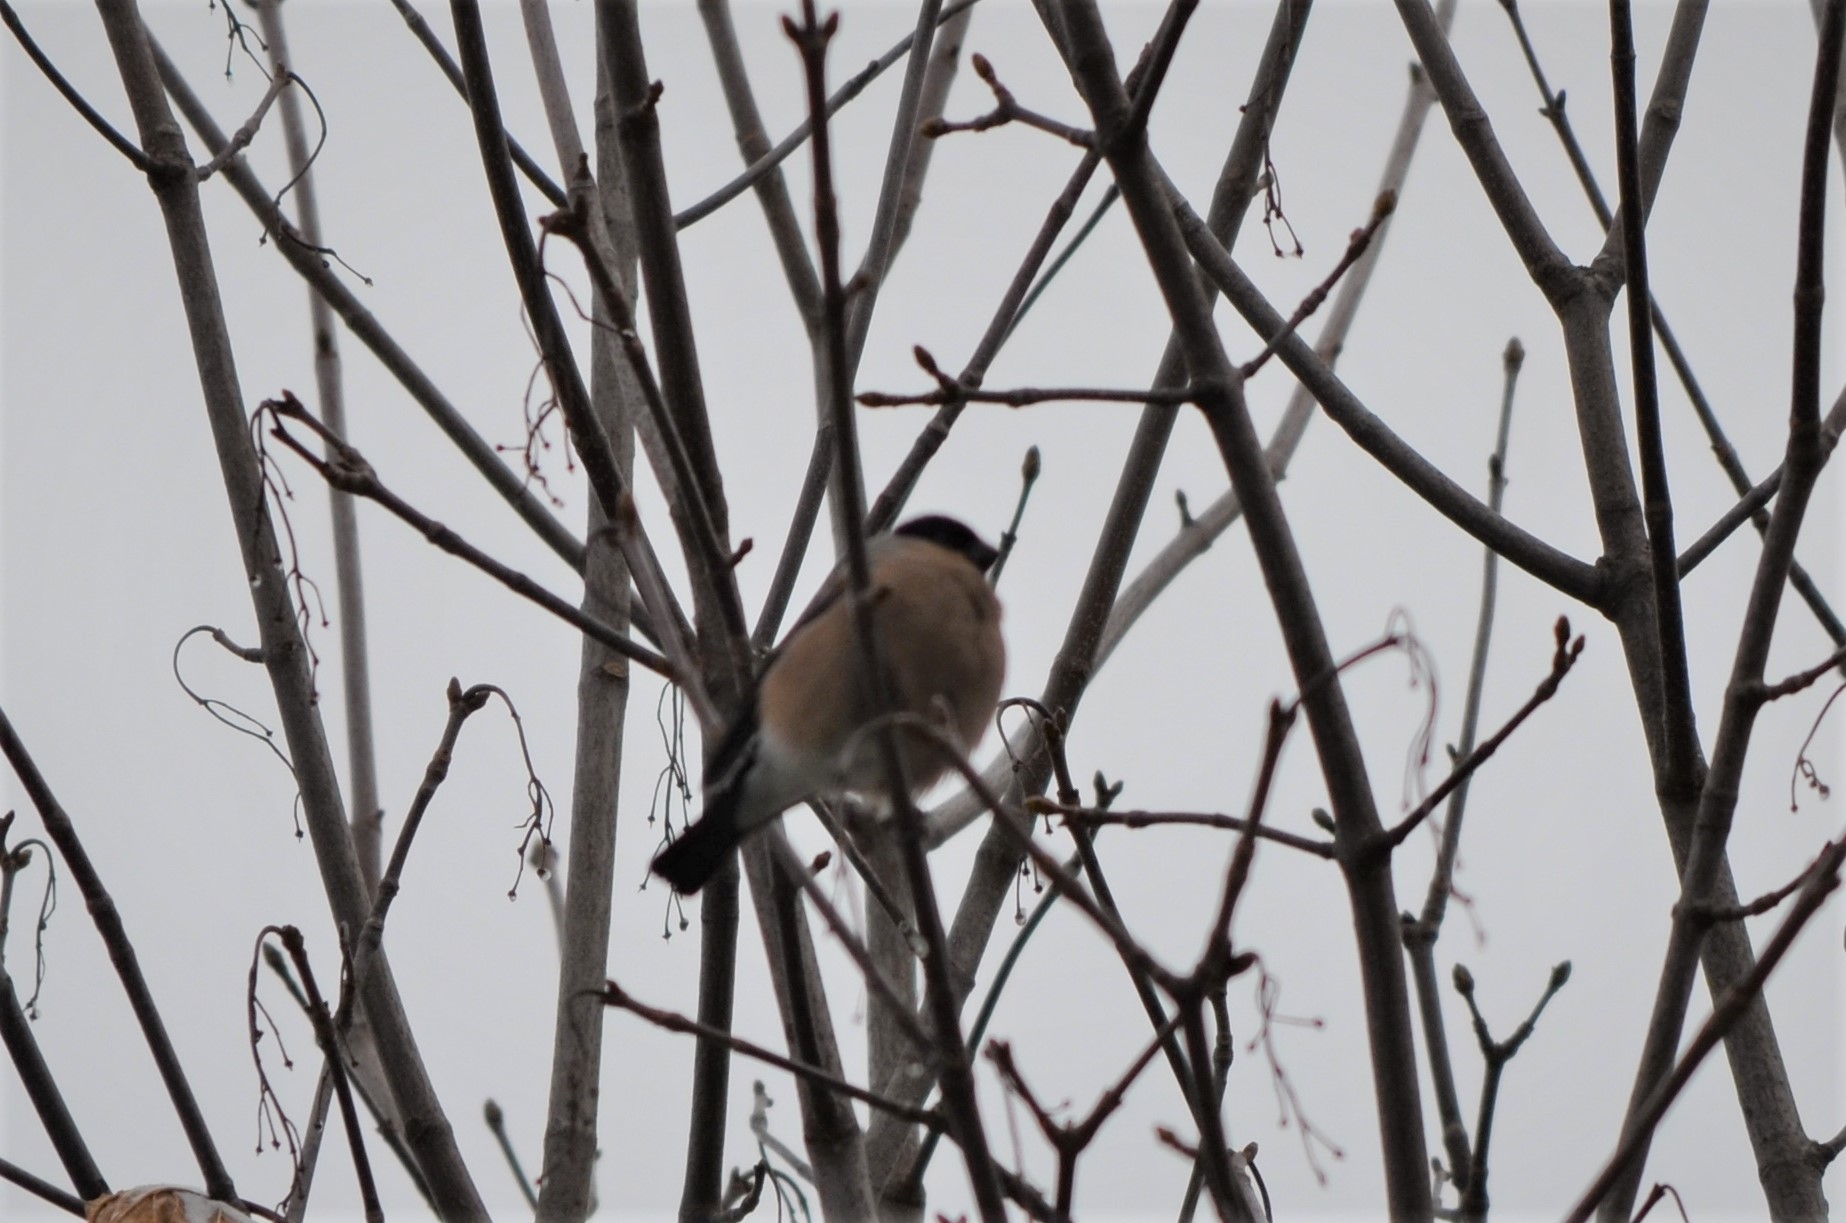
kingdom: Animalia
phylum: Chordata
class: Aves
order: Passeriformes
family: Fringillidae
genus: Pyrrhula
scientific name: Pyrrhula pyrrhula
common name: Eurasian bullfinch
